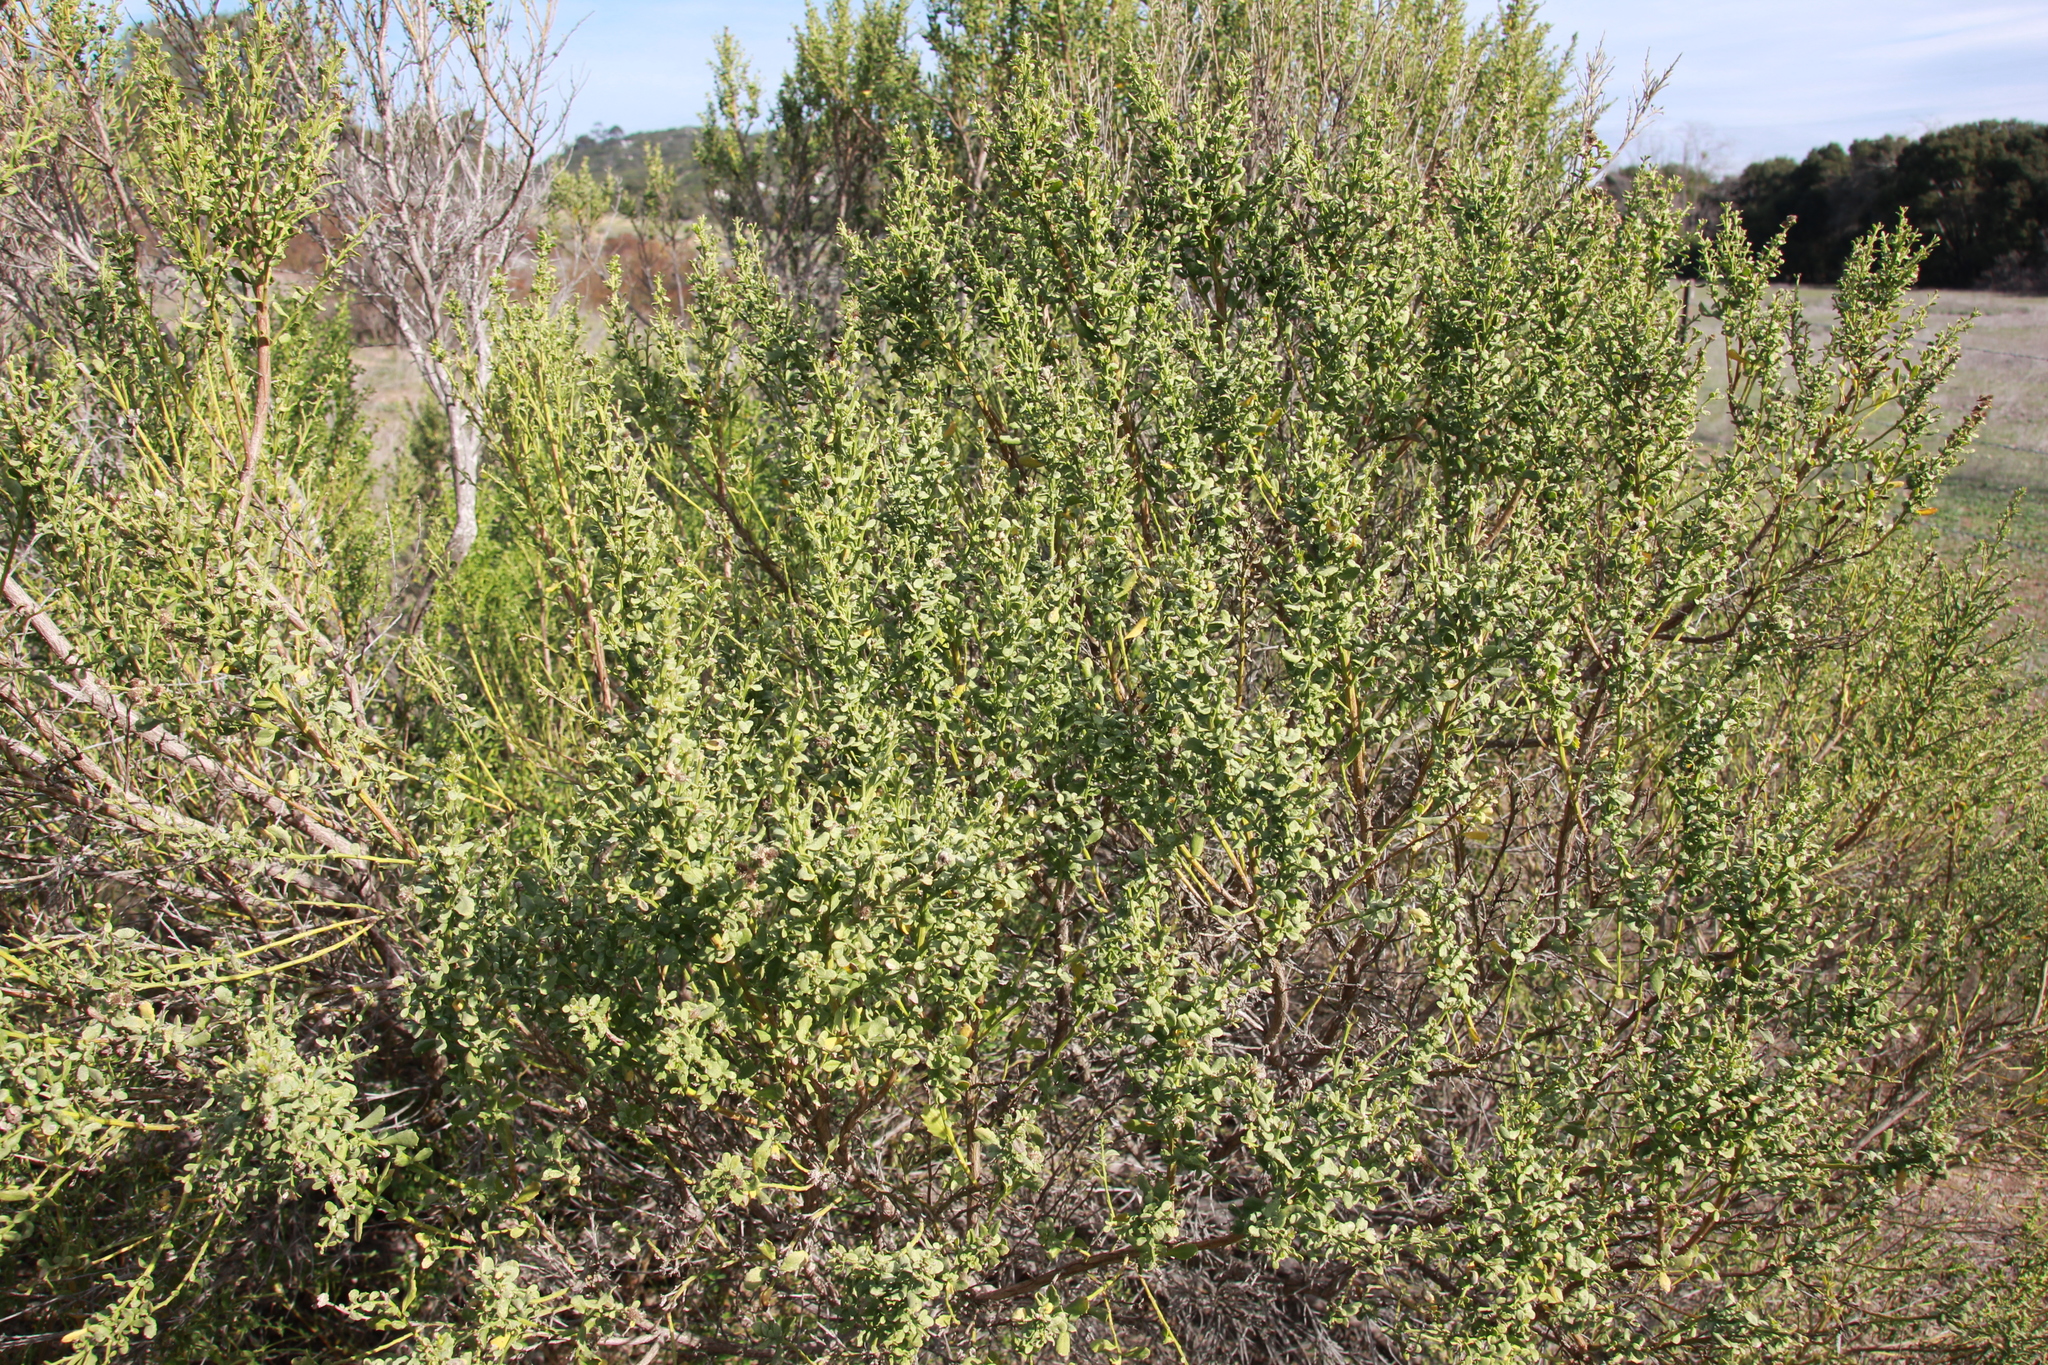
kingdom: Plantae
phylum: Tracheophyta
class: Magnoliopsida
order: Asterales
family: Asteraceae
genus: Baccharis
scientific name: Baccharis pilularis
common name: Coyotebrush
